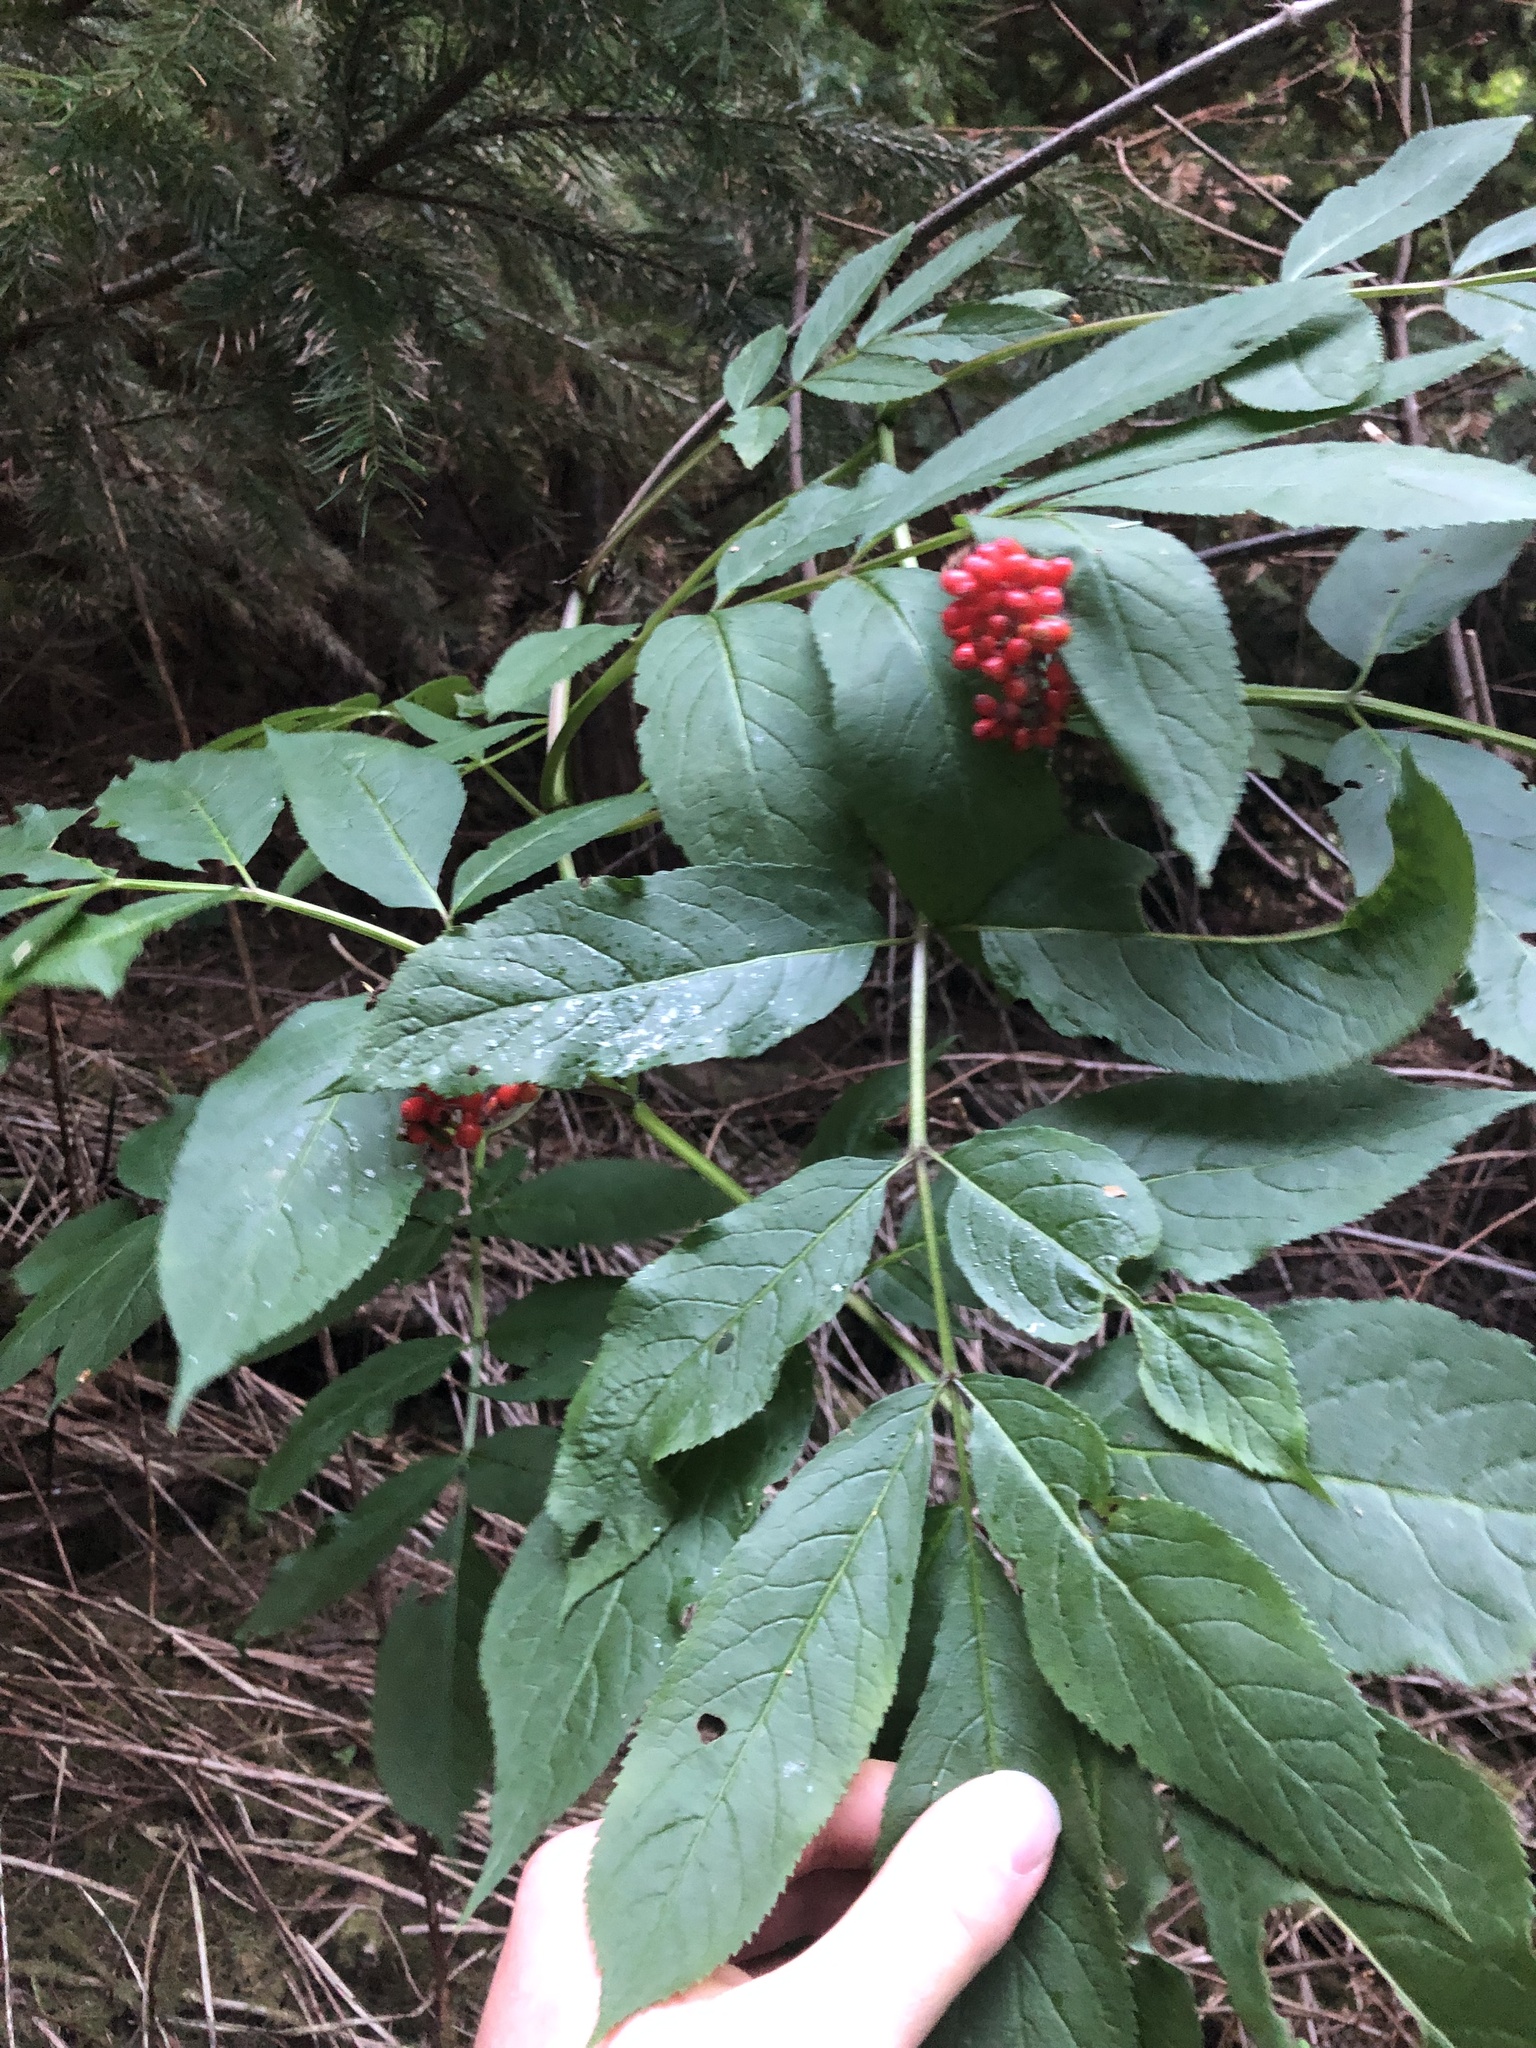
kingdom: Plantae
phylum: Tracheophyta
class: Magnoliopsida
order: Dipsacales
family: Viburnaceae
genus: Sambucus
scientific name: Sambucus racemosa
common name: Red-berried elder
